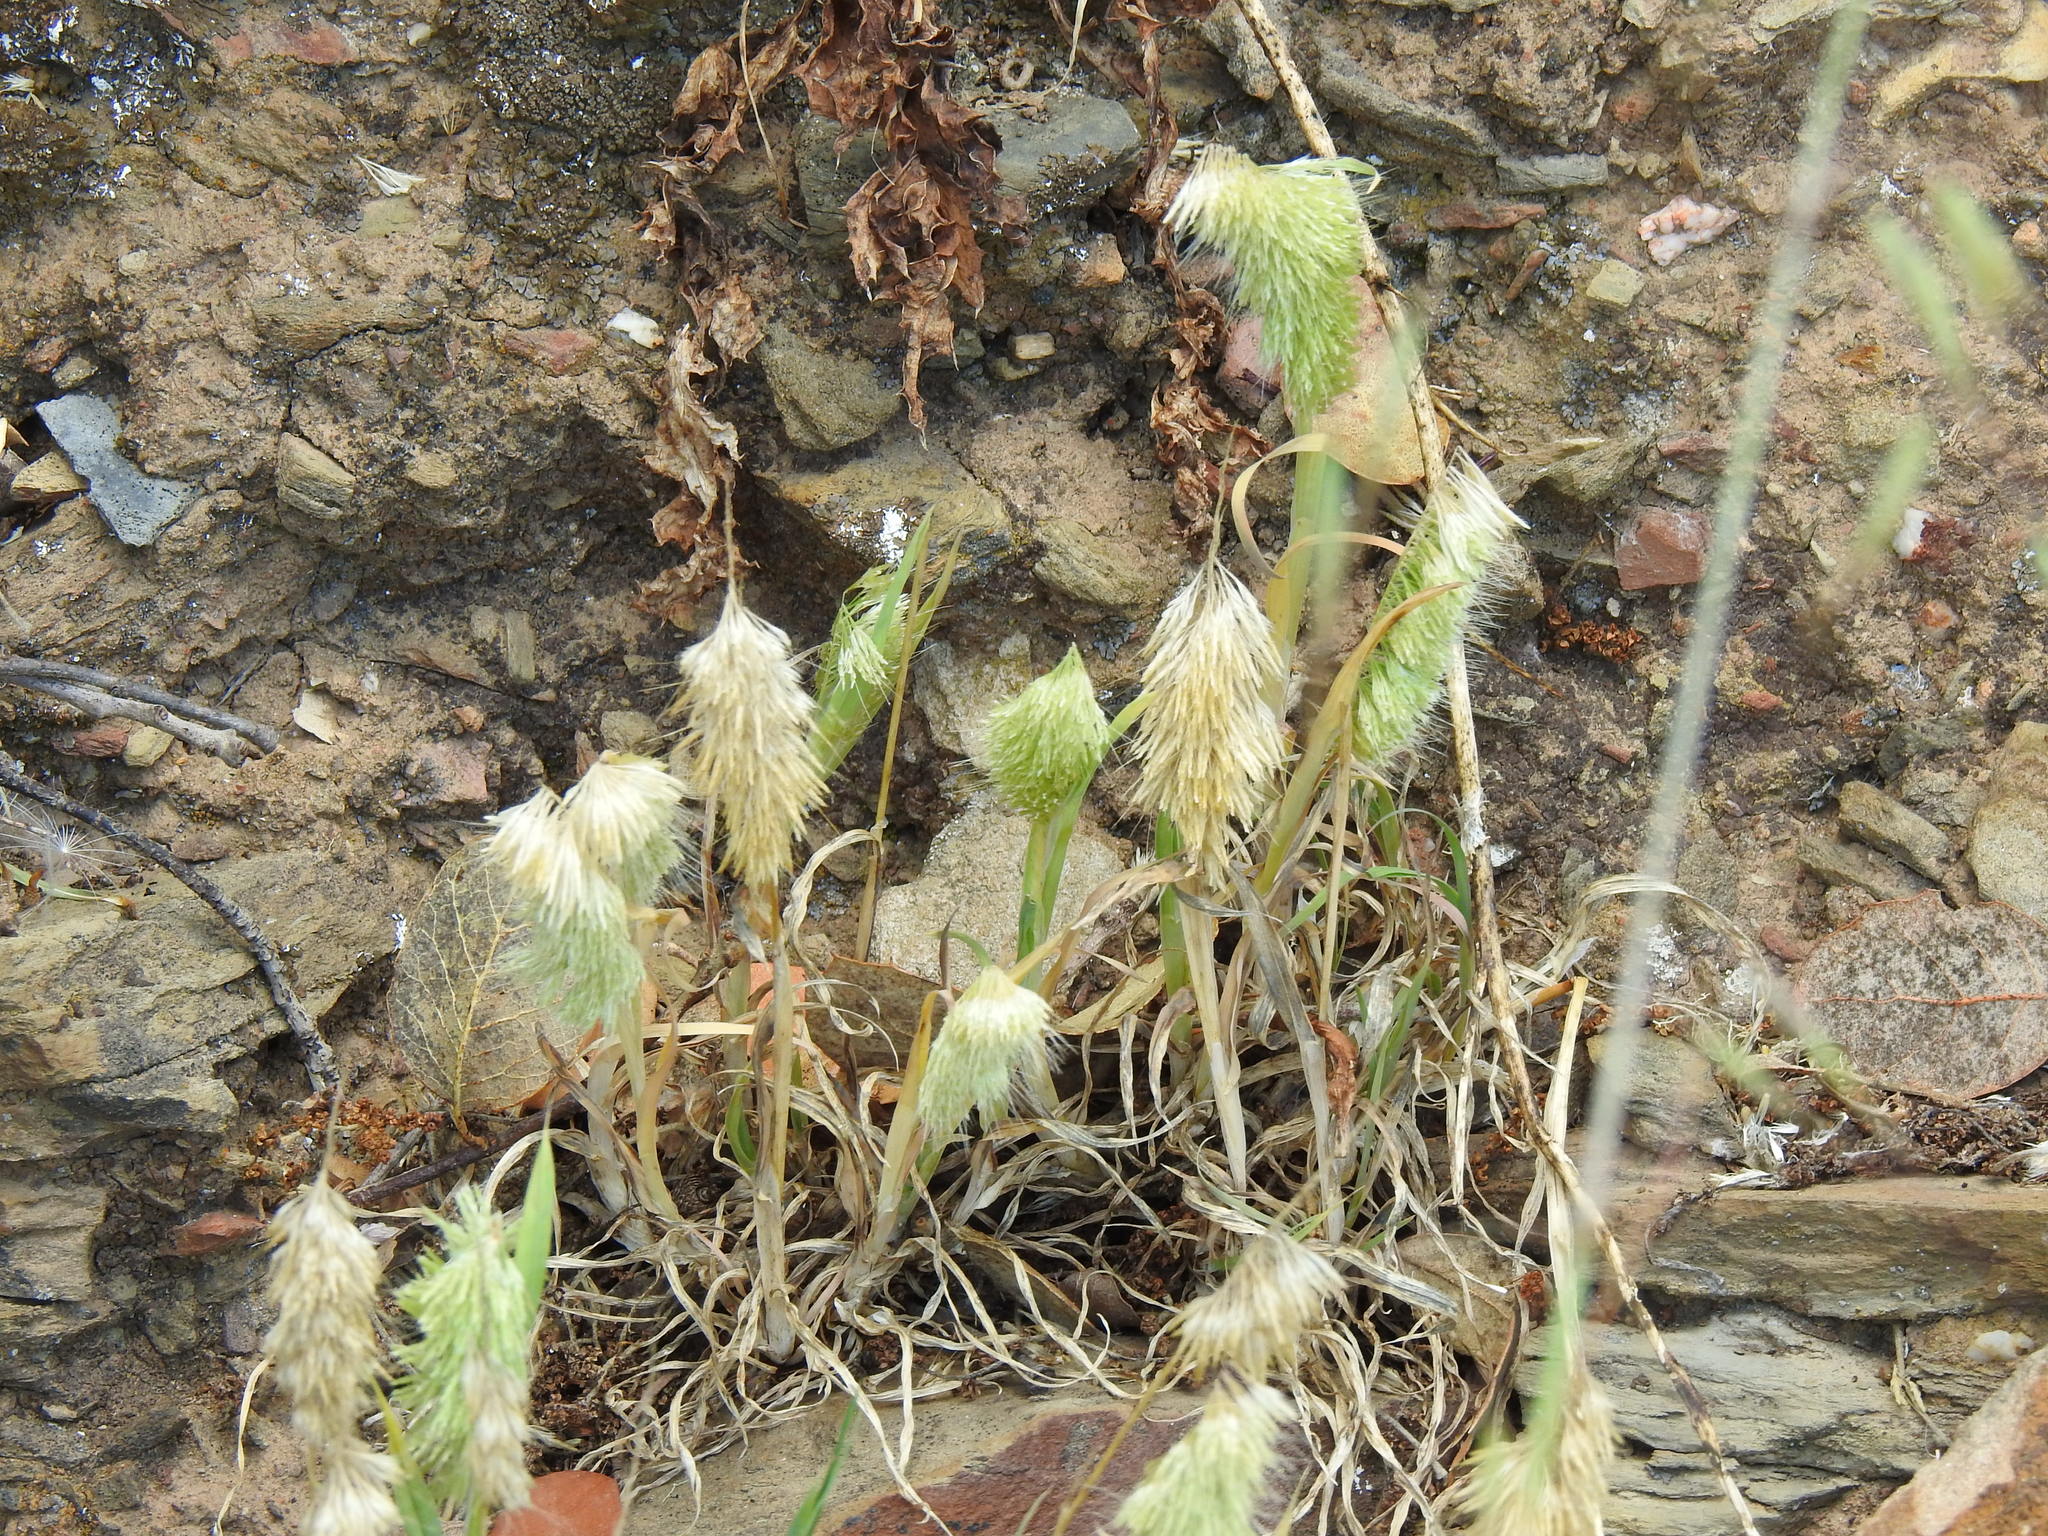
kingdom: Plantae
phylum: Tracheophyta
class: Liliopsida
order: Poales
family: Poaceae
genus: Lamarckia
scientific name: Lamarckia aurea
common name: Golden dog's-tail
